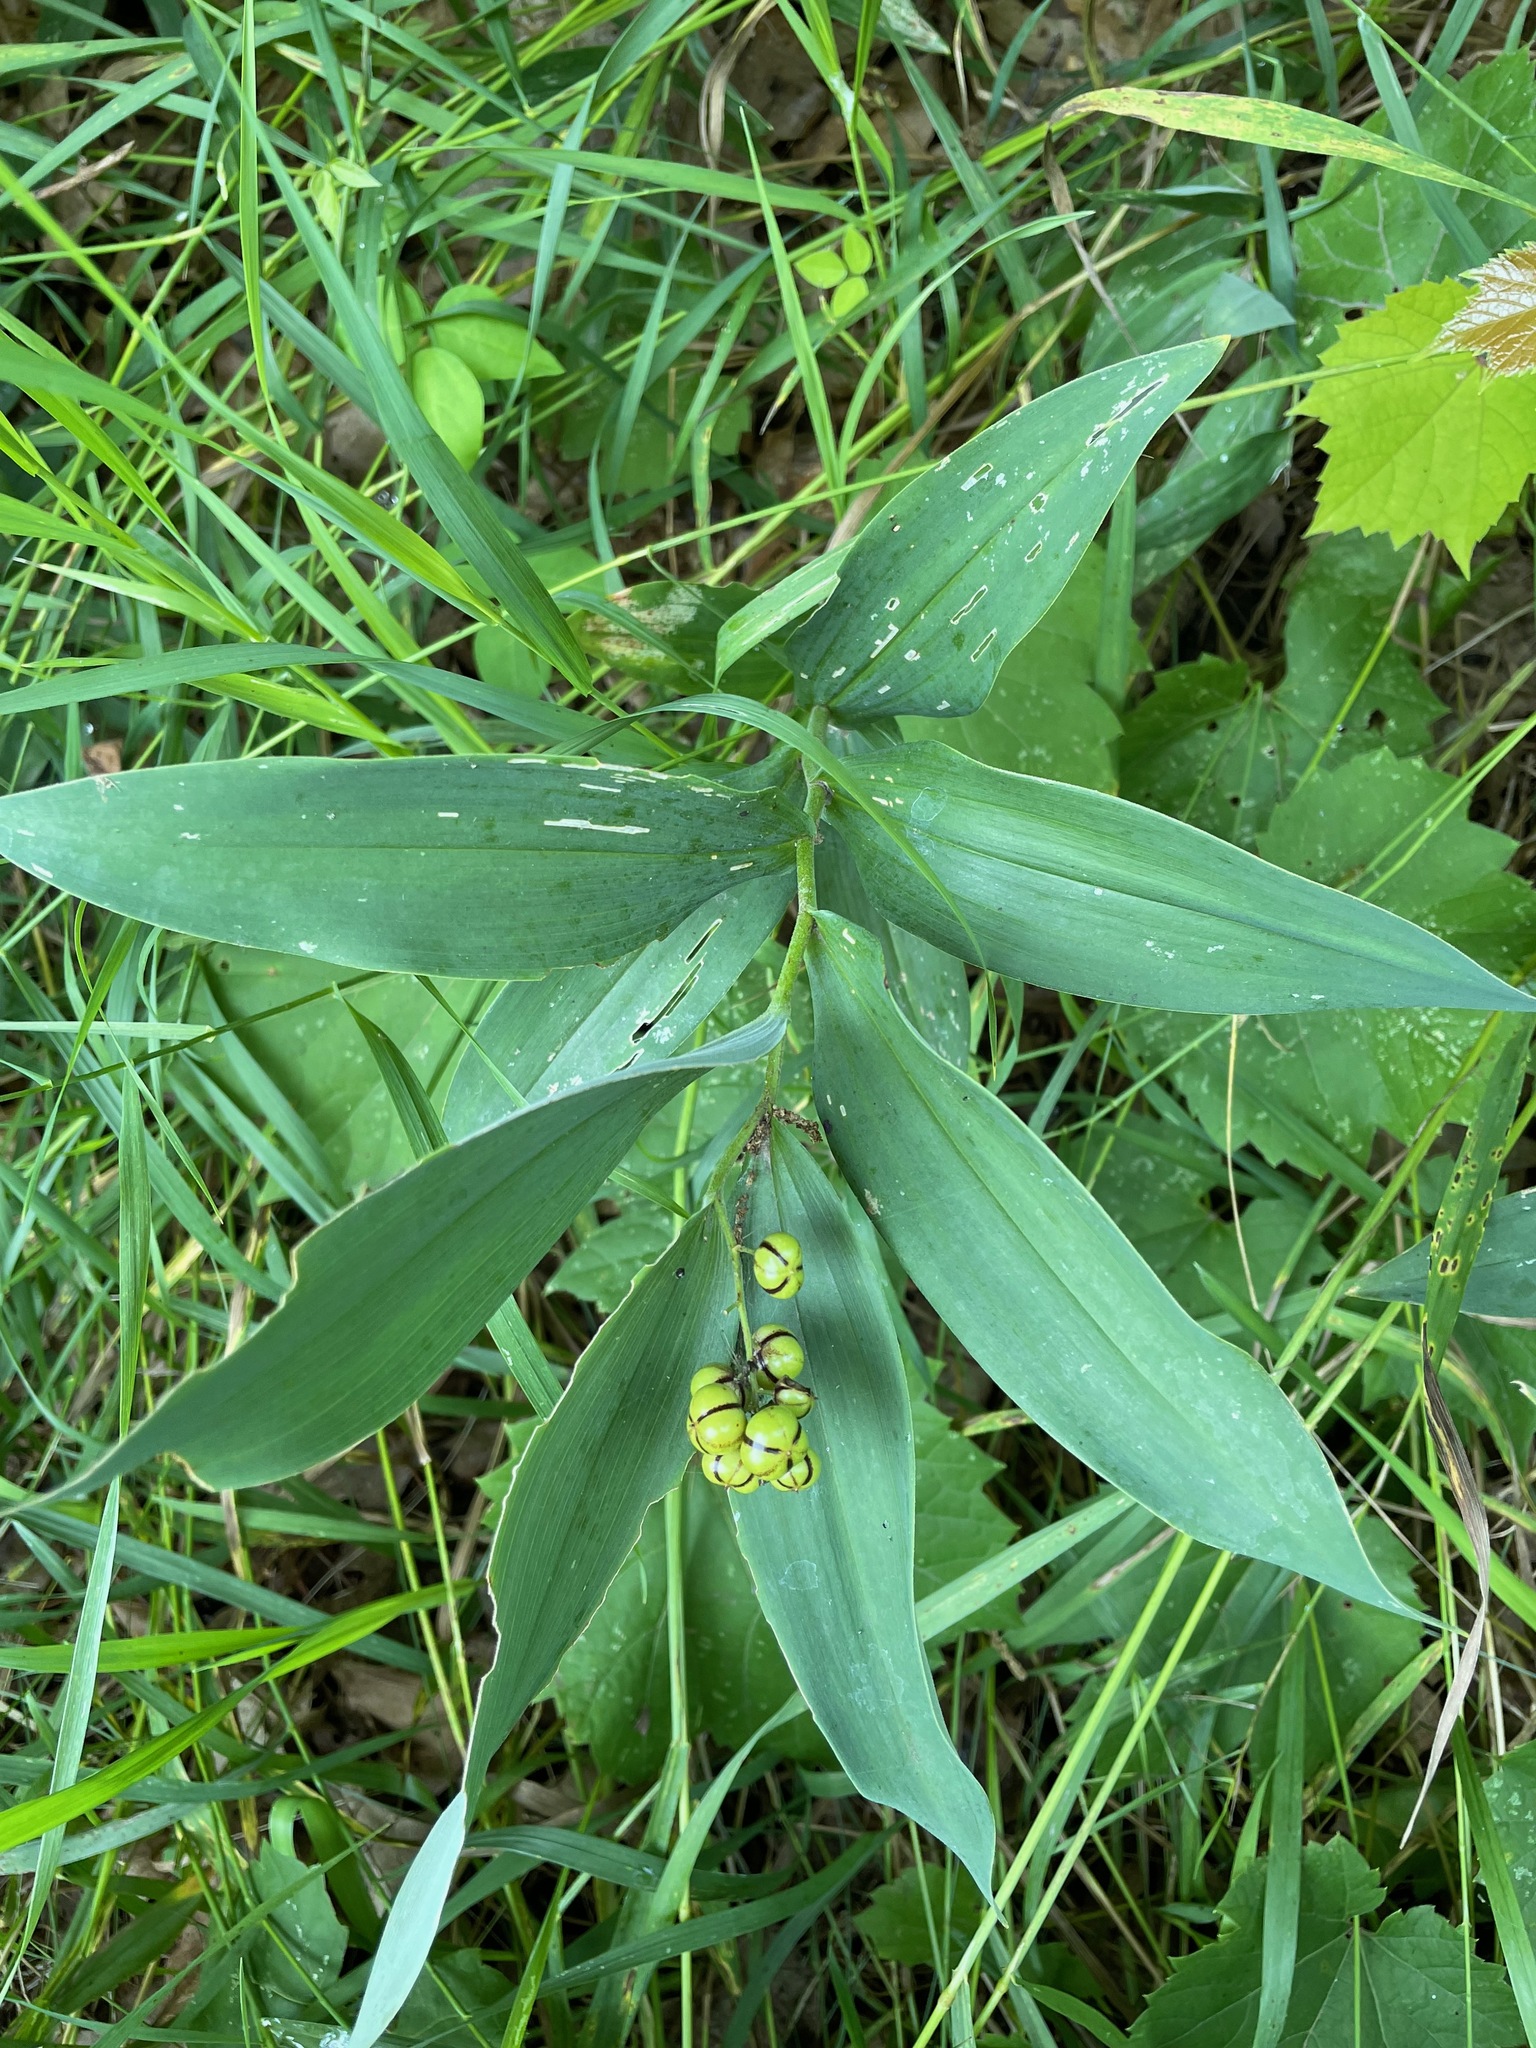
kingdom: Plantae
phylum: Tracheophyta
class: Liliopsida
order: Asparagales
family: Asparagaceae
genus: Maianthemum
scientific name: Maianthemum stellatum
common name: Little false solomon's seal
